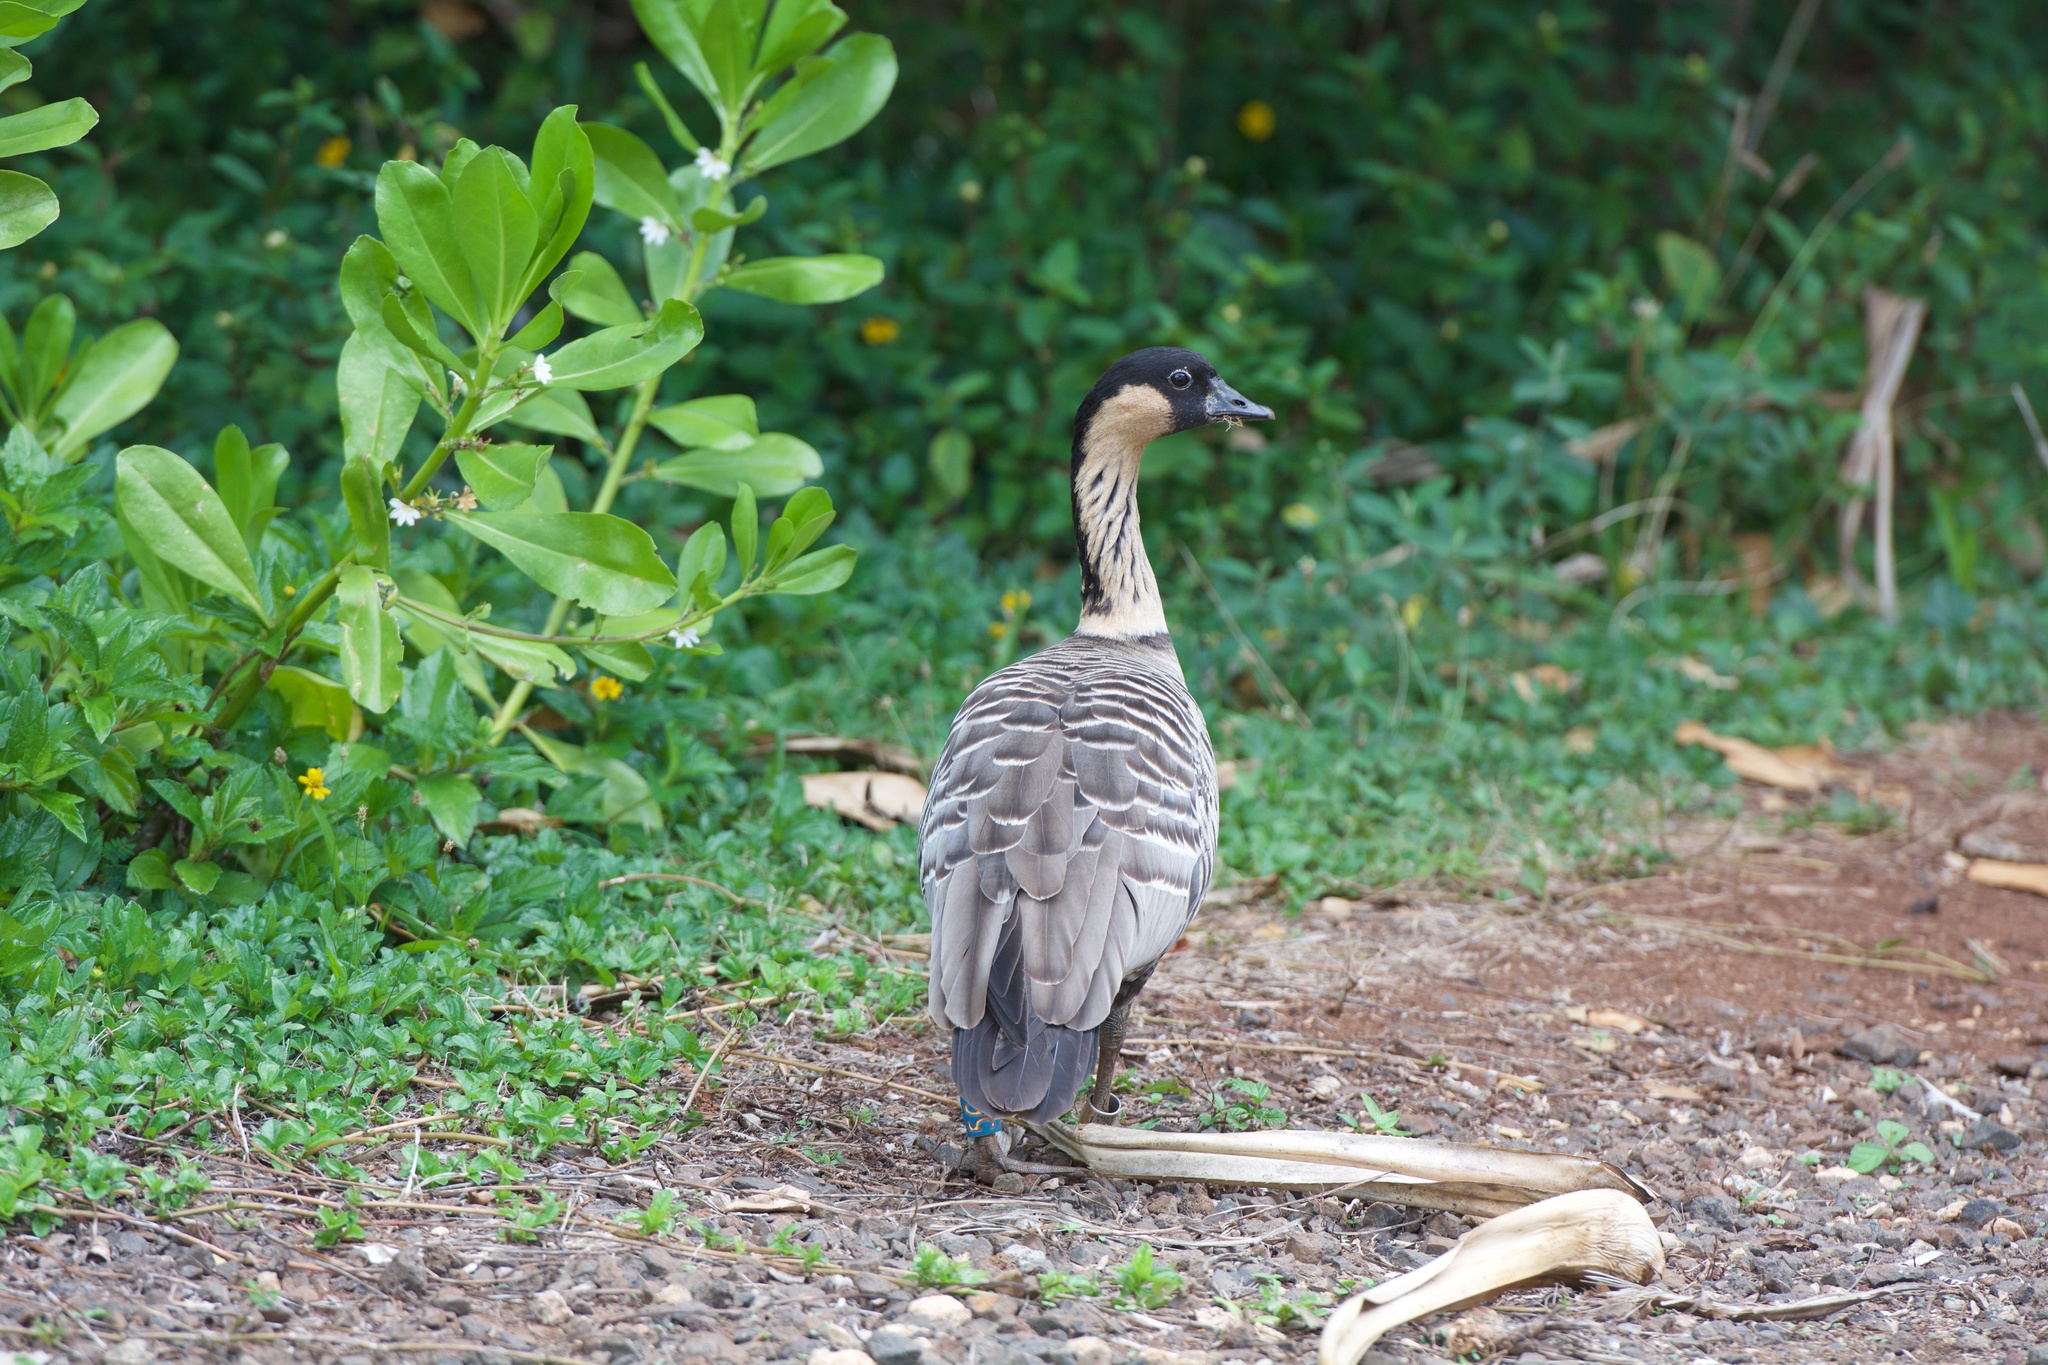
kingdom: Animalia
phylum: Chordata
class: Aves
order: Anseriformes
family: Anatidae
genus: Branta
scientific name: Branta sandvicensis
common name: Nene
